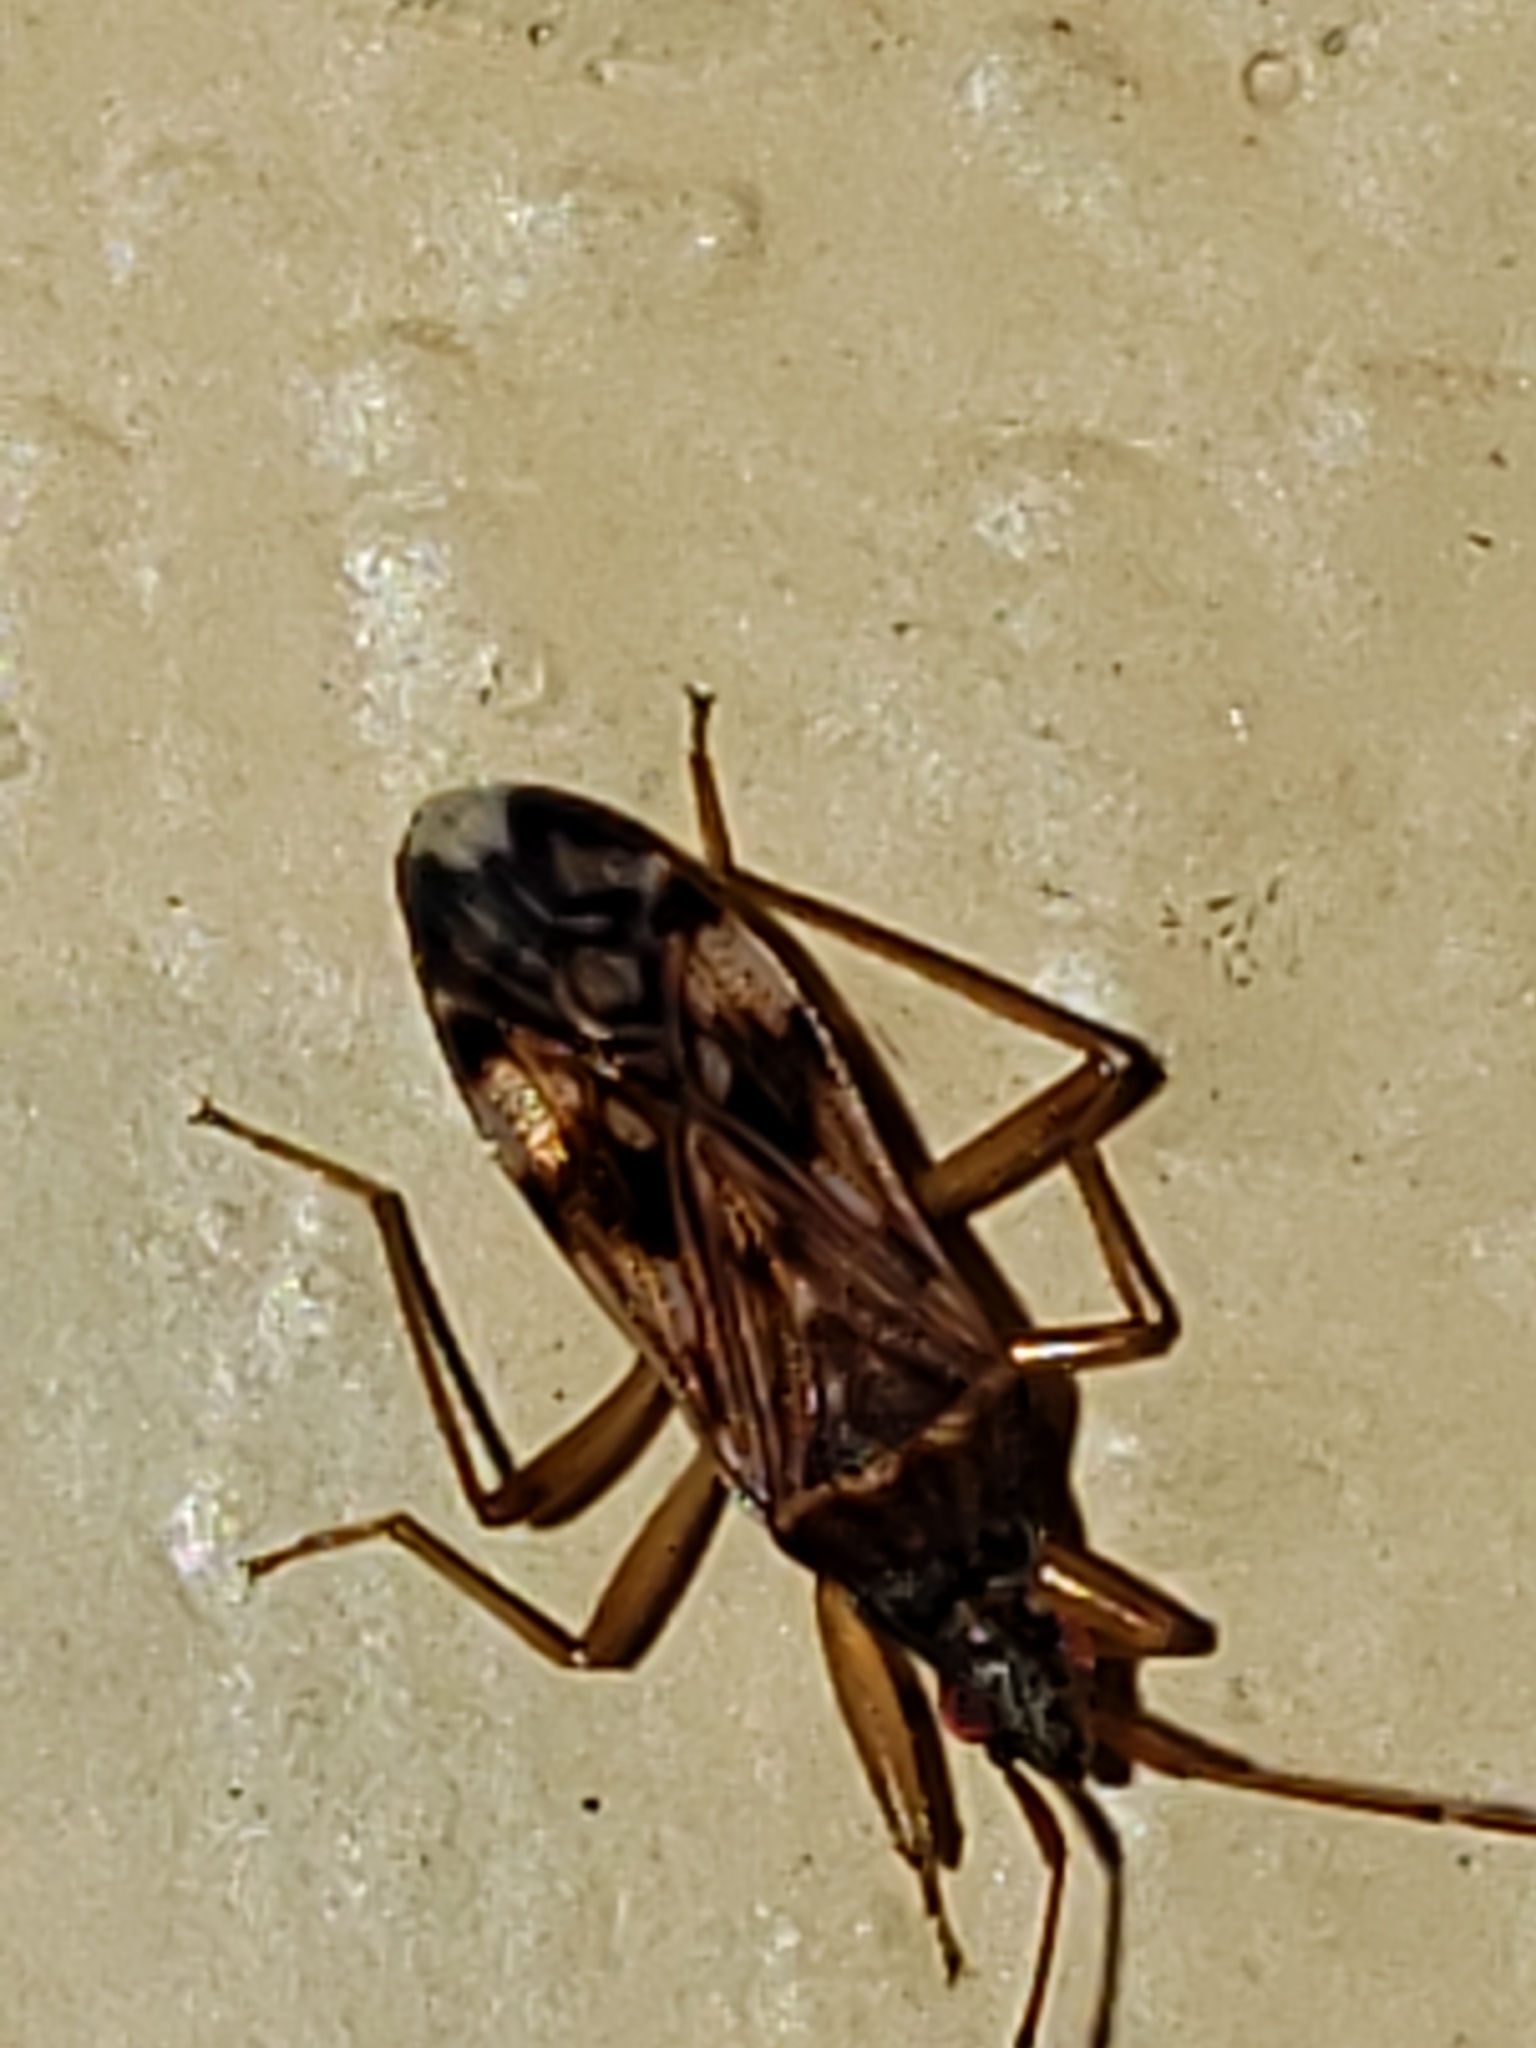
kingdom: Animalia
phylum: Arthropoda
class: Insecta
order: Hemiptera
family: Rhyparochromidae
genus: Ozophora
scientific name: Ozophora picturata
